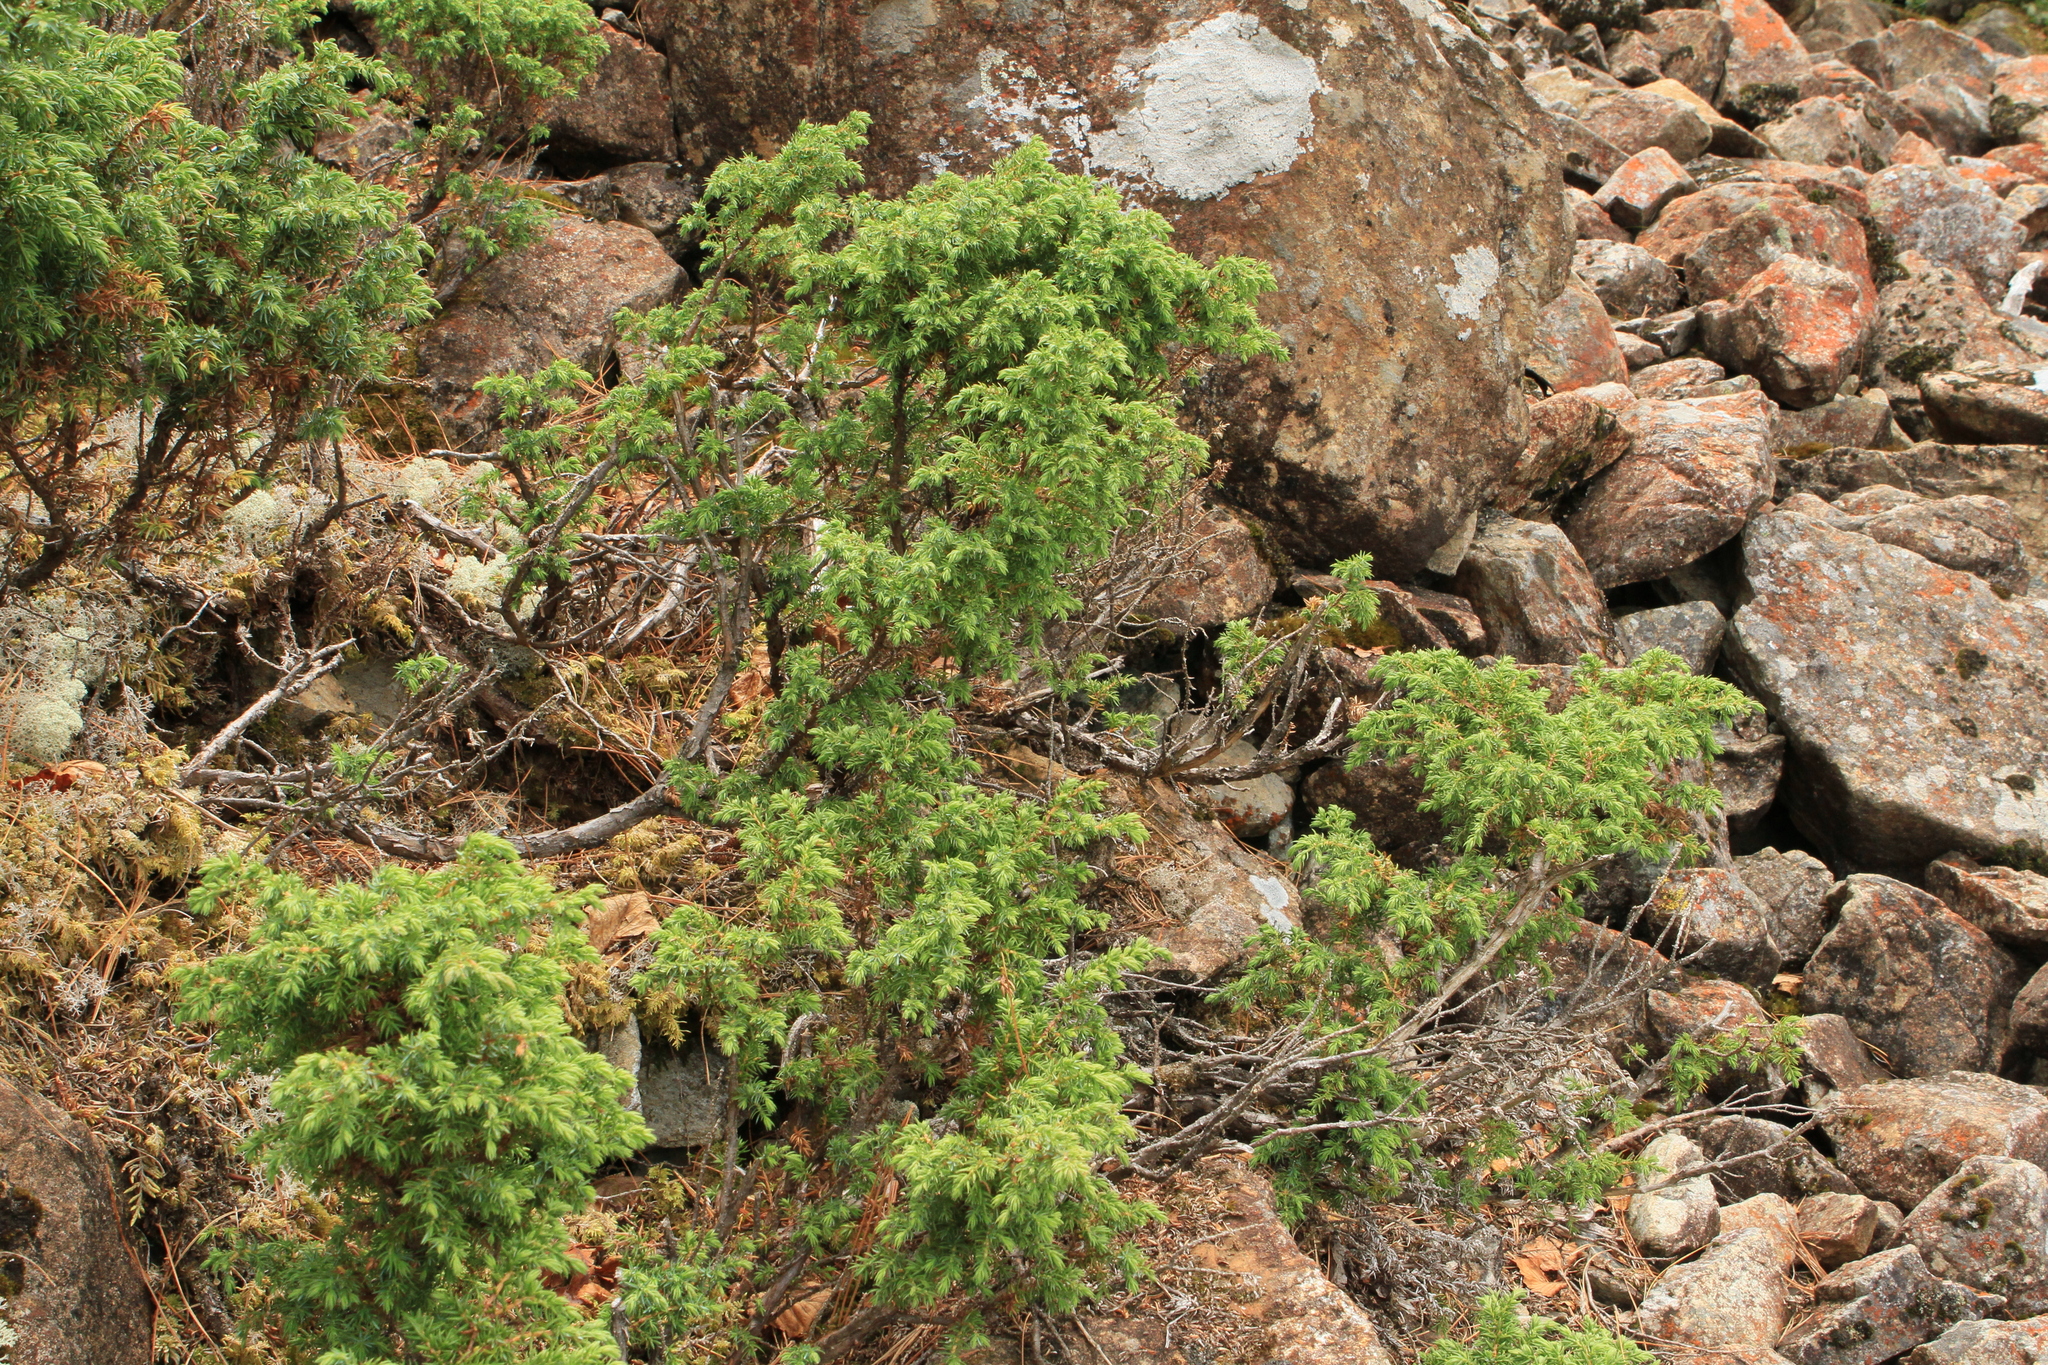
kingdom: Plantae
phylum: Tracheophyta
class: Pinopsida
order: Pinales
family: Cupressaceae
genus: Juniperus
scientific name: Juniperus communis
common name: Common juniper
